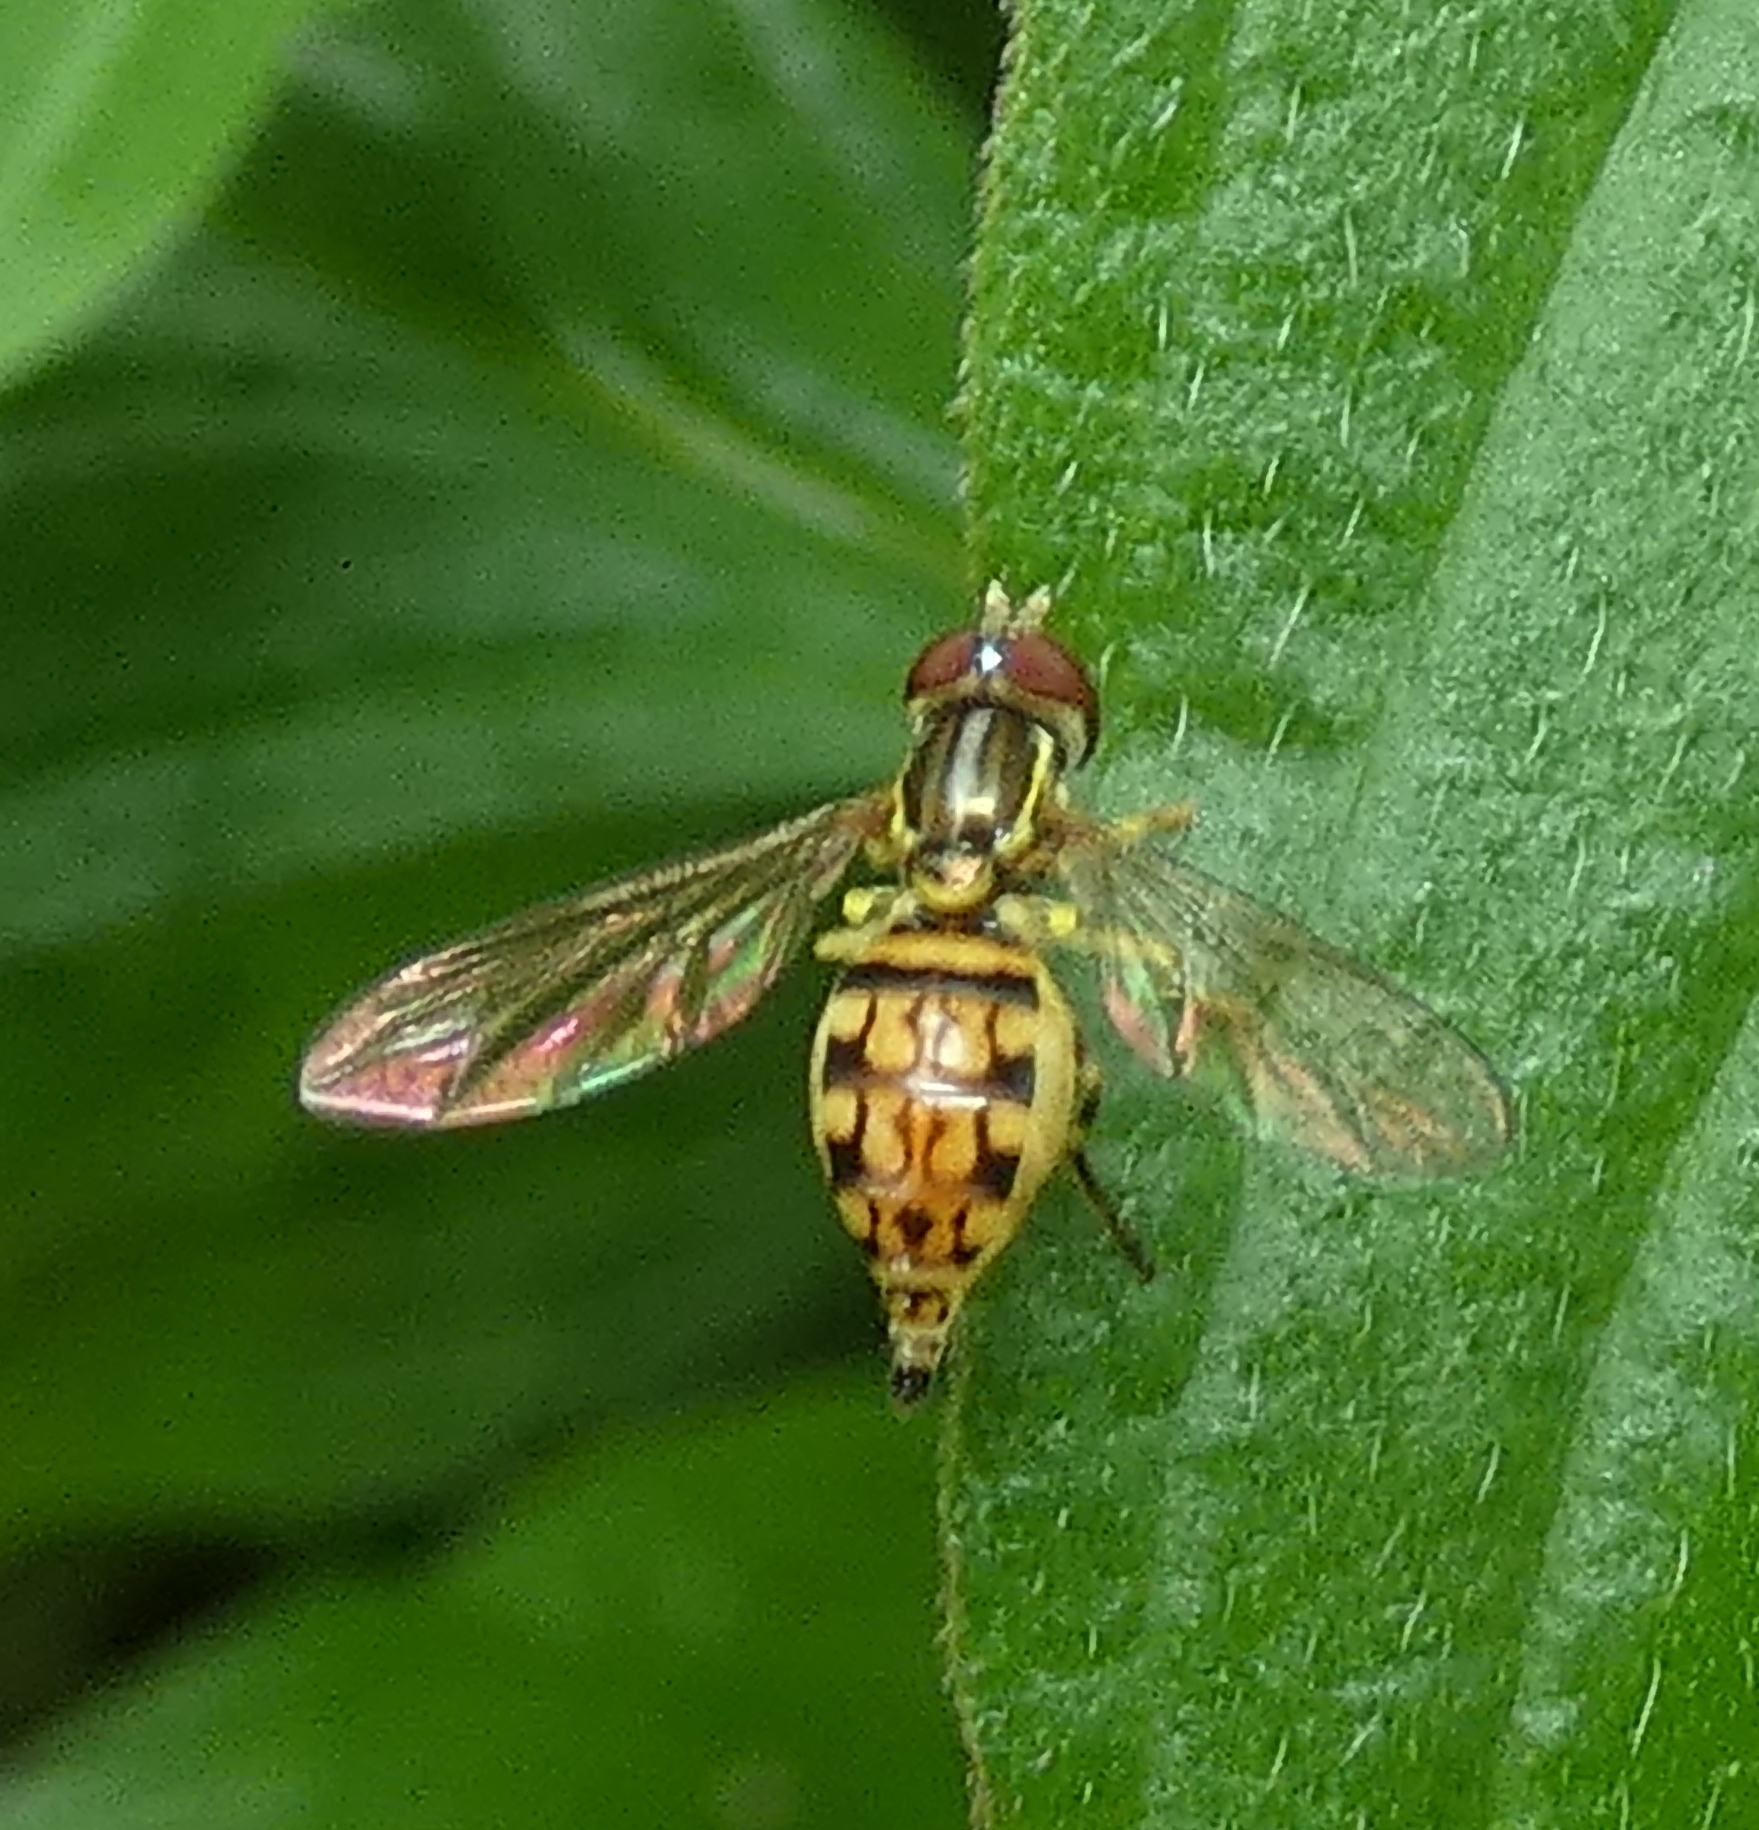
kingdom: Animalia
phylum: Arthropoda
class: Insecta
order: Diptera
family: Syrphidae
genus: Toxomerus
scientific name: Toxomerus pictus
